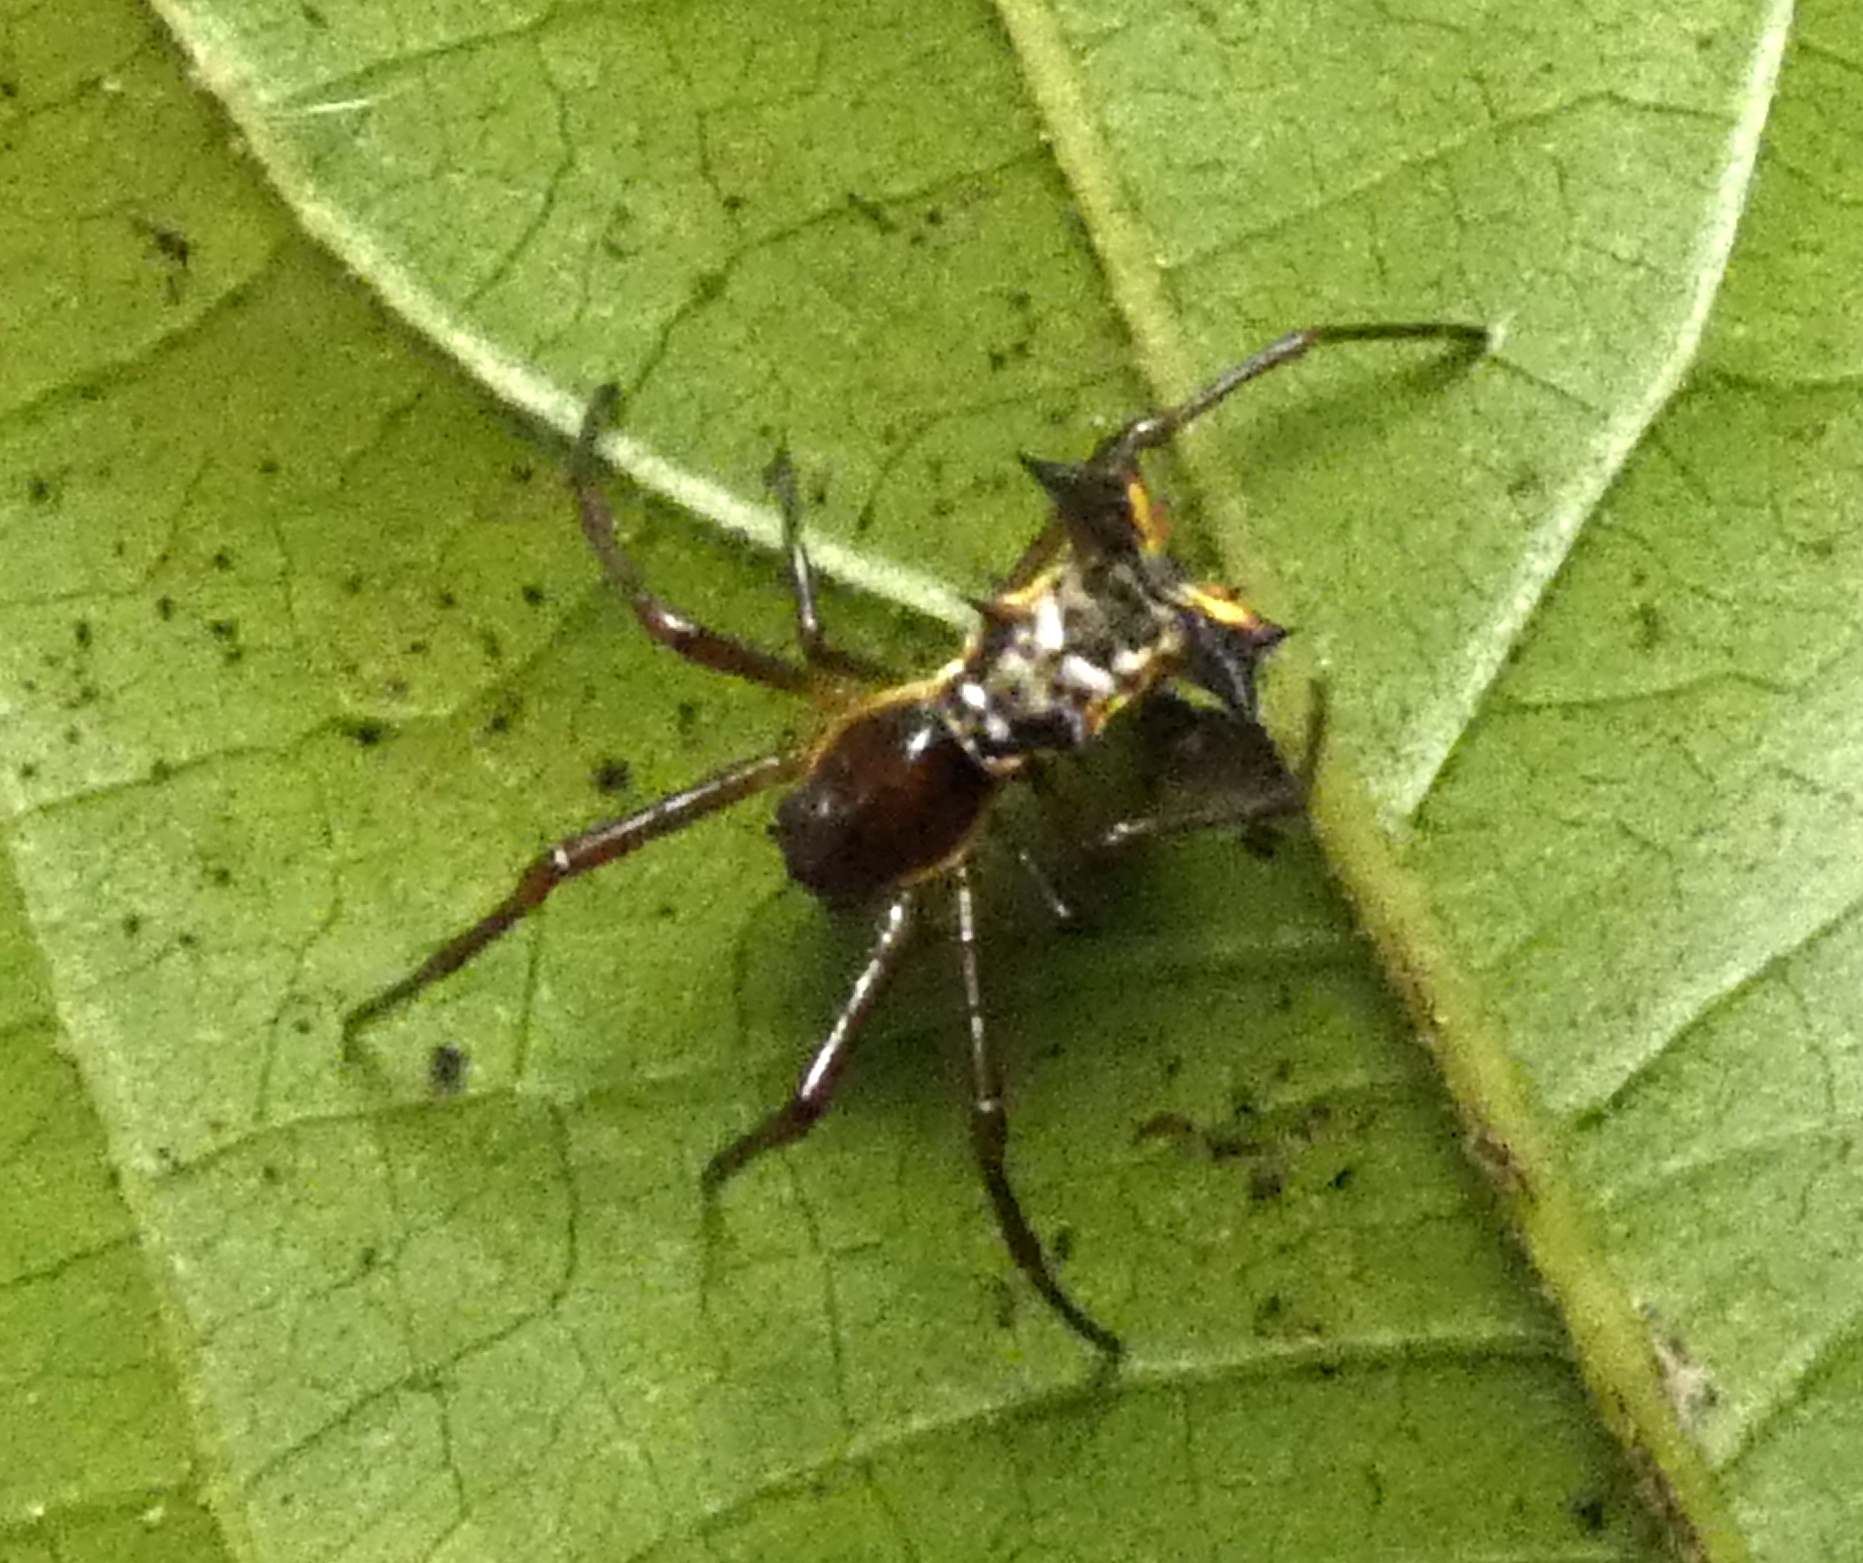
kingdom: Animalia
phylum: Arthropoda
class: Arachnida
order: Araneae
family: Araneidae
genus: Micrathena
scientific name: Micrathena fissispina
